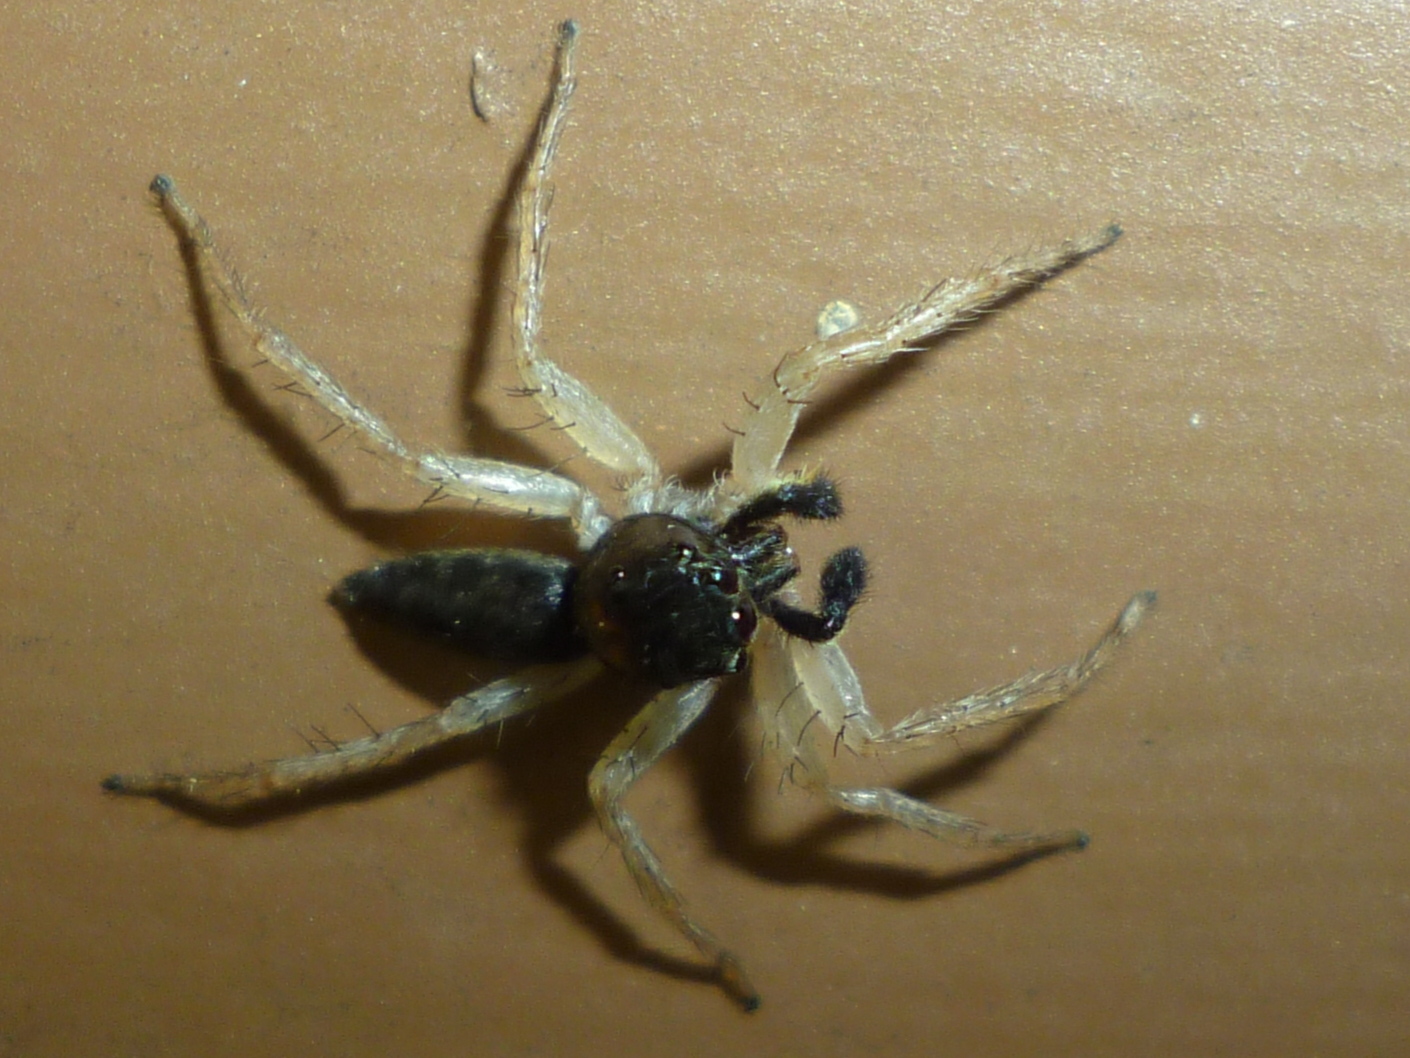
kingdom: Animalia
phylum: Arthropoda
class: Arachnida
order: Araneae
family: Salticidae
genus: Maevia
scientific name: Maevia inclemens
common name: Dimorphic jumper
